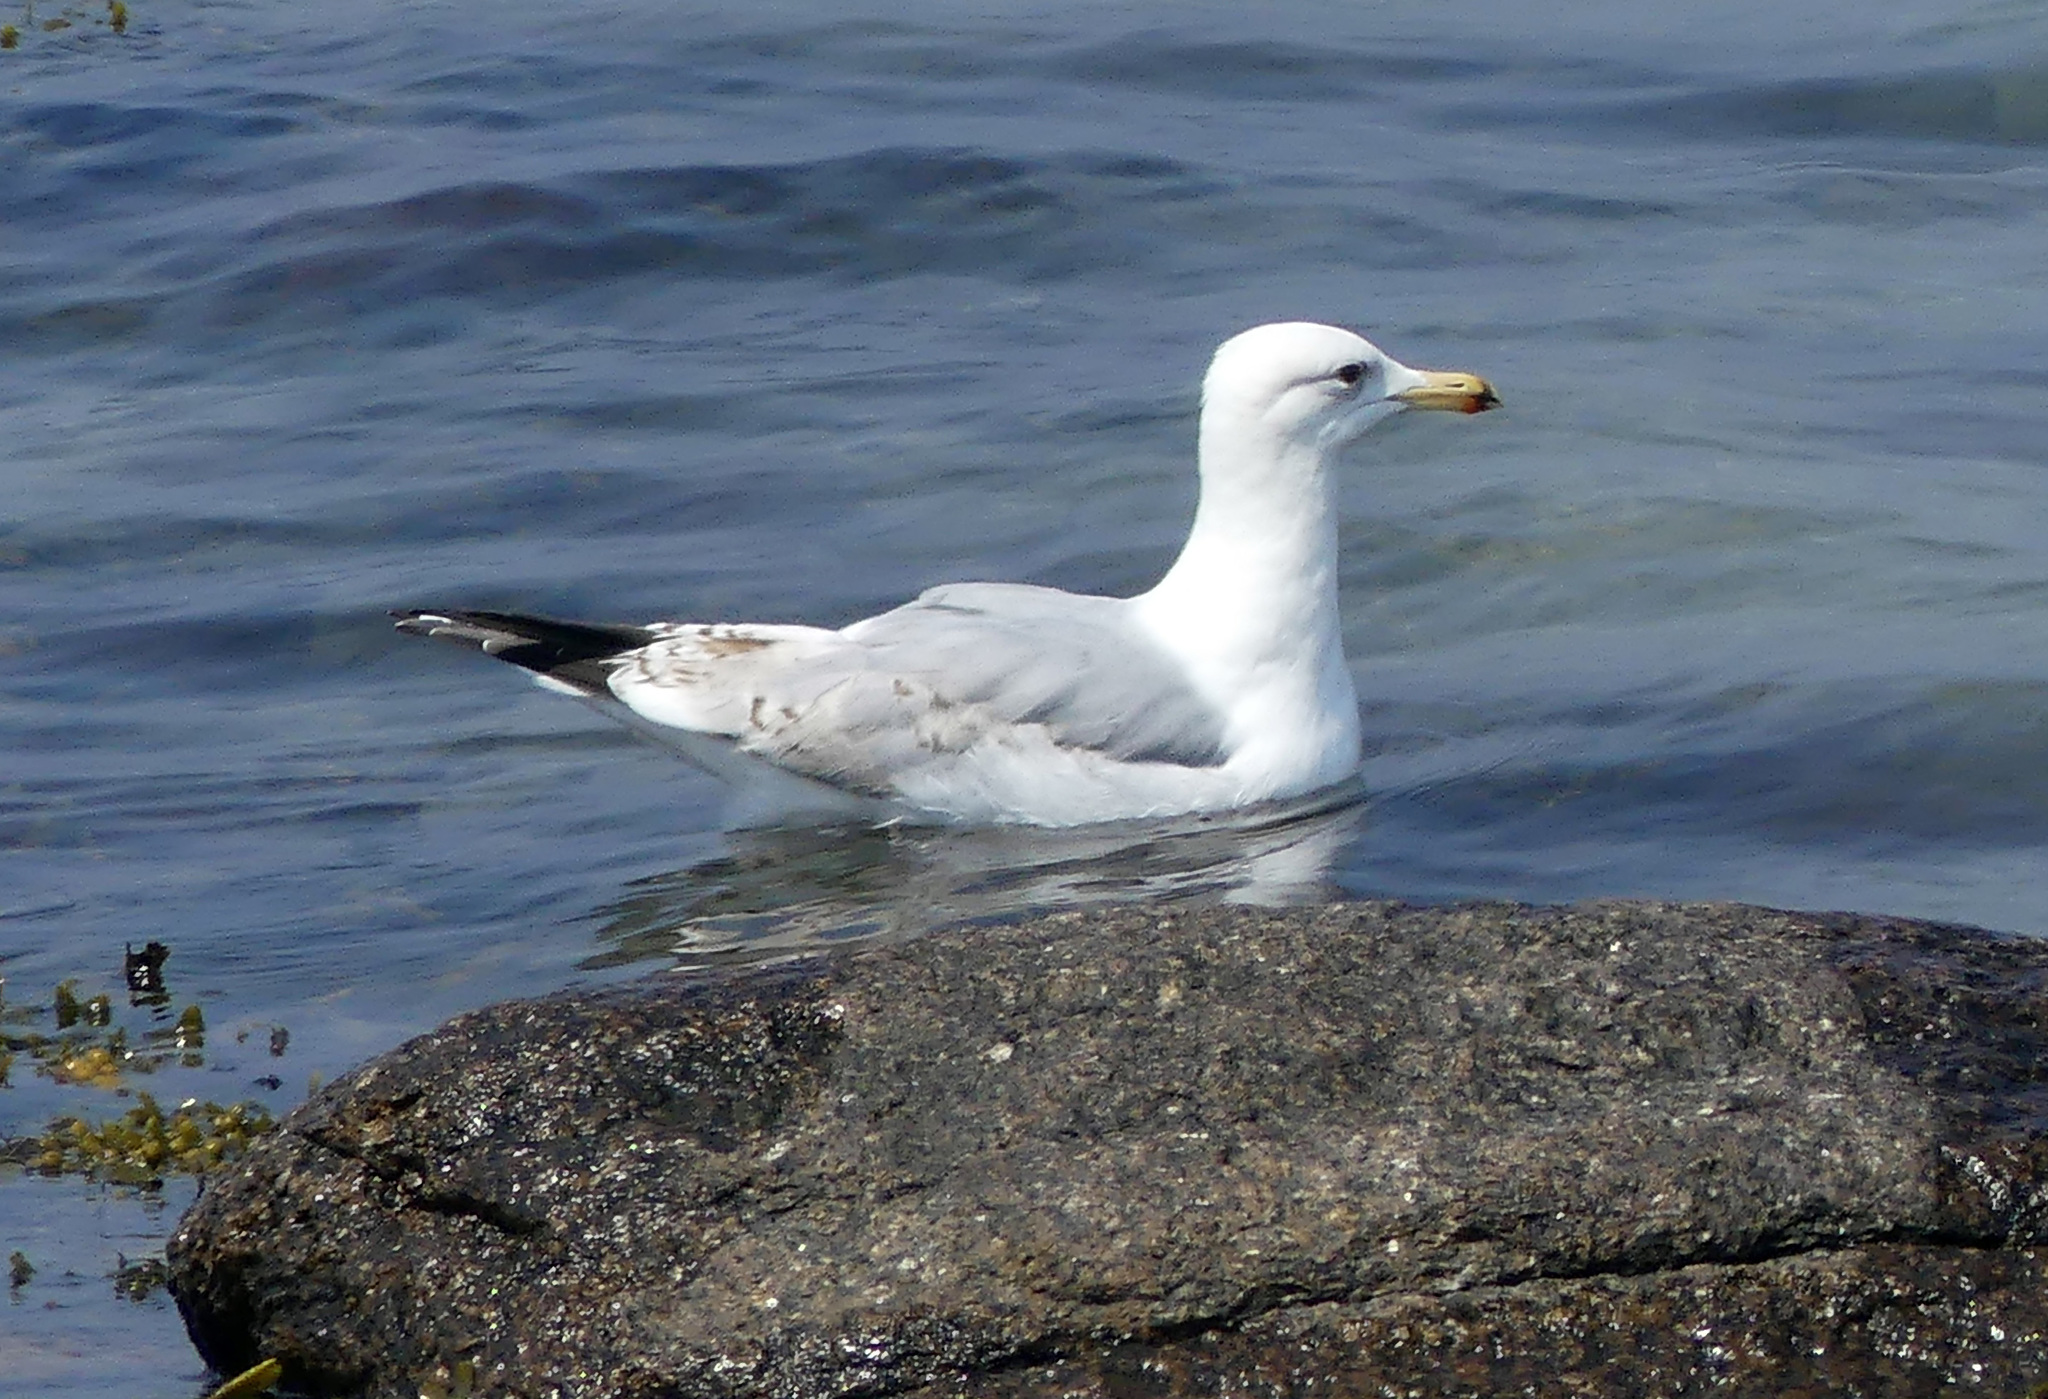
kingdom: Animalia
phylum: Chordata
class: Aves
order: Charadriiformes
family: Laridae
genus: Larus
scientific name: Larus argentatus
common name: Herring gull
